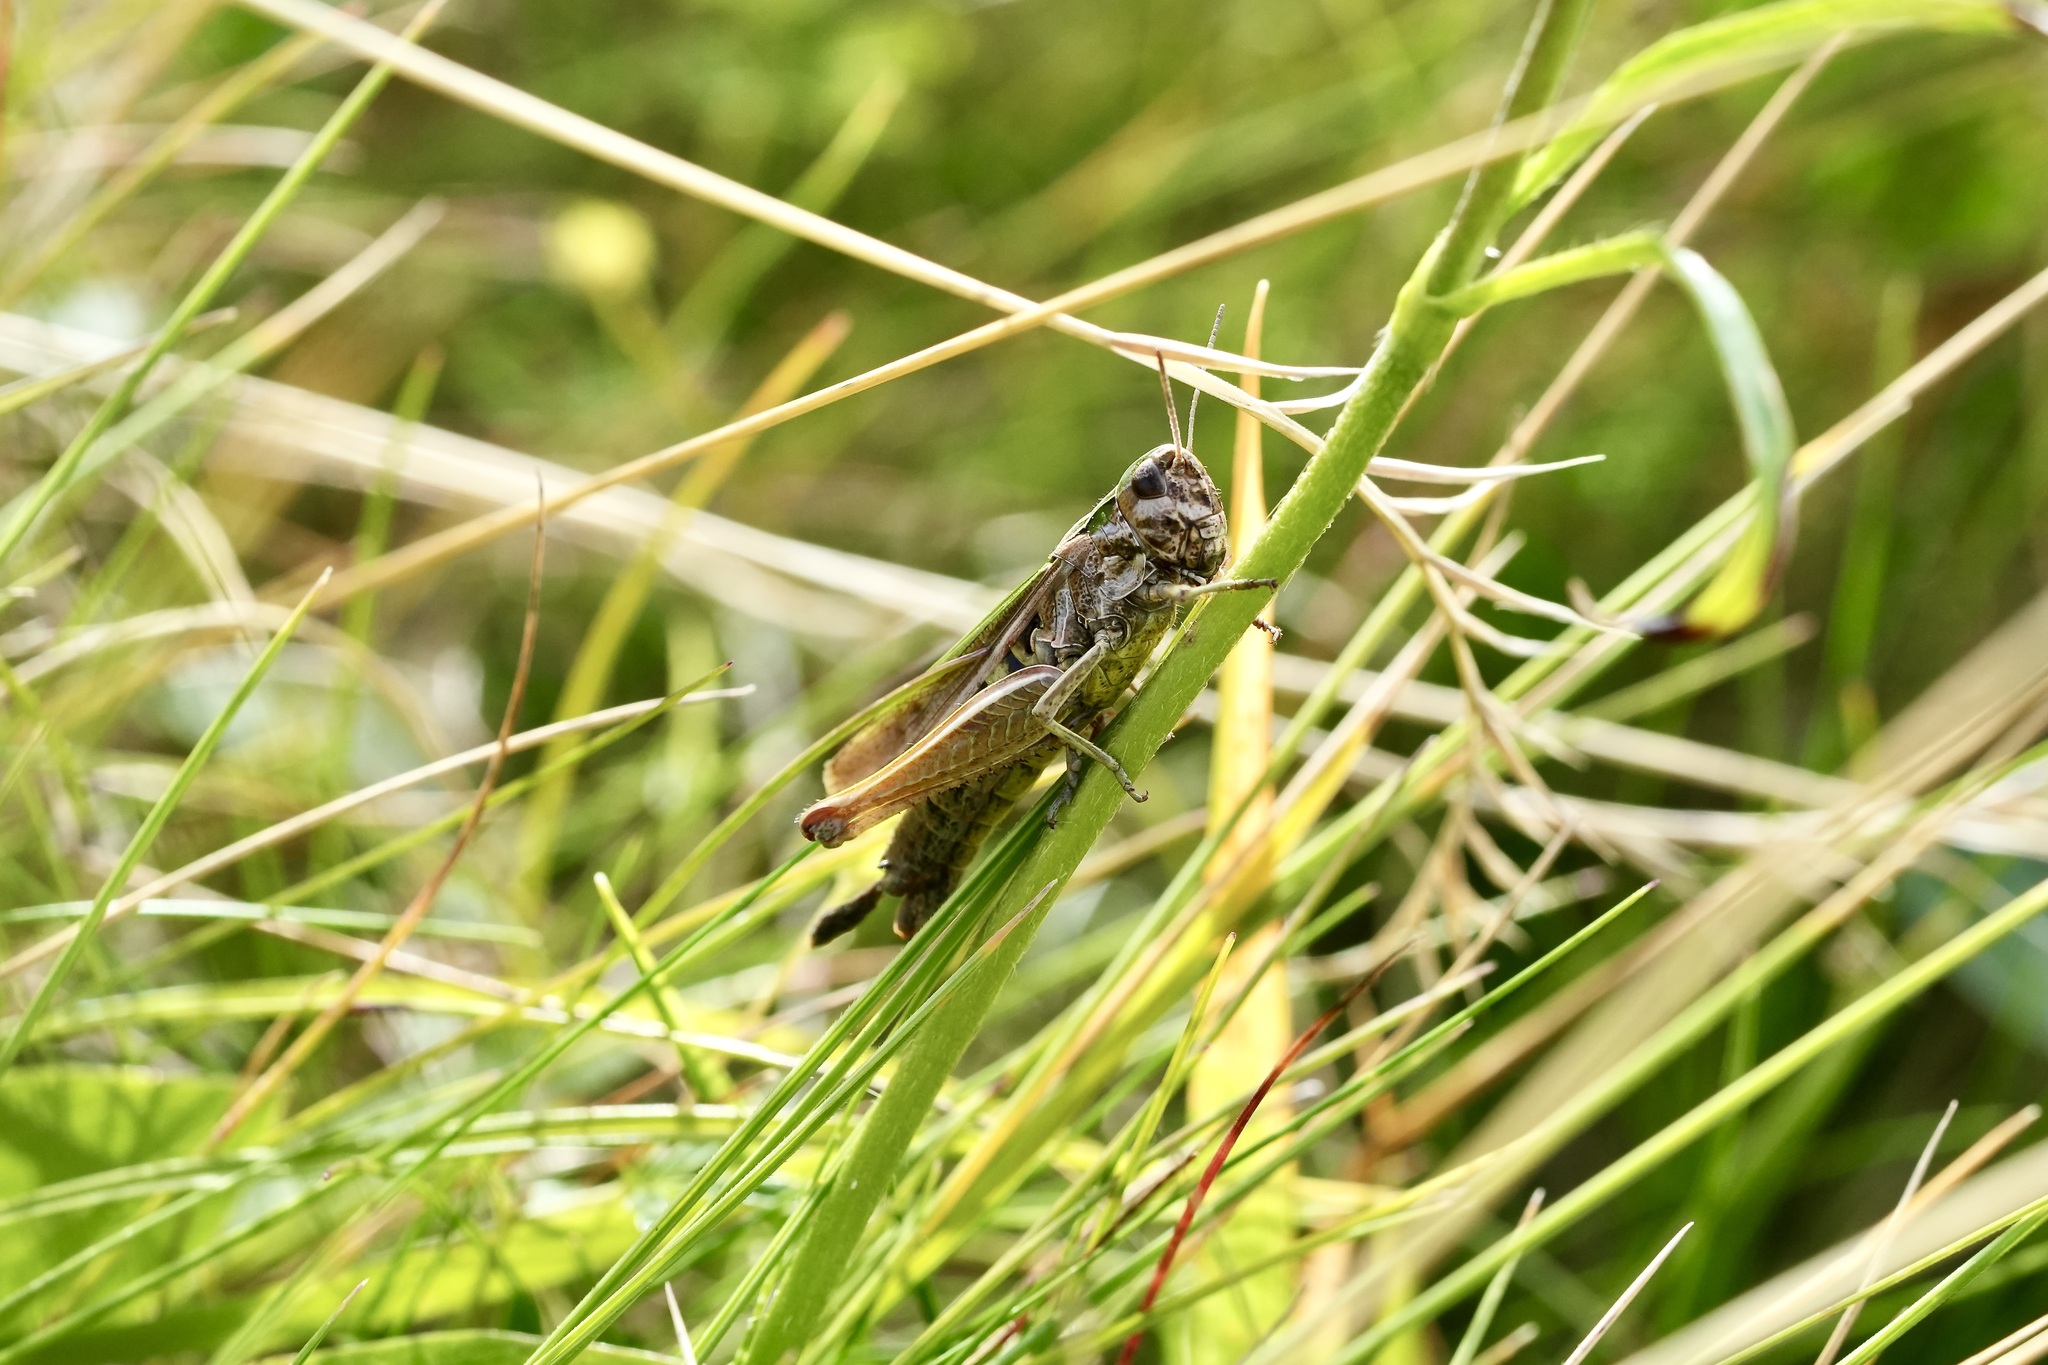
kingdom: Animalia
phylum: Arthropoda
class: Insecta
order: Orthoptera
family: Acrididae
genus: Omocestus
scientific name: Omocestus viridulus
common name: Common green grasshopper
